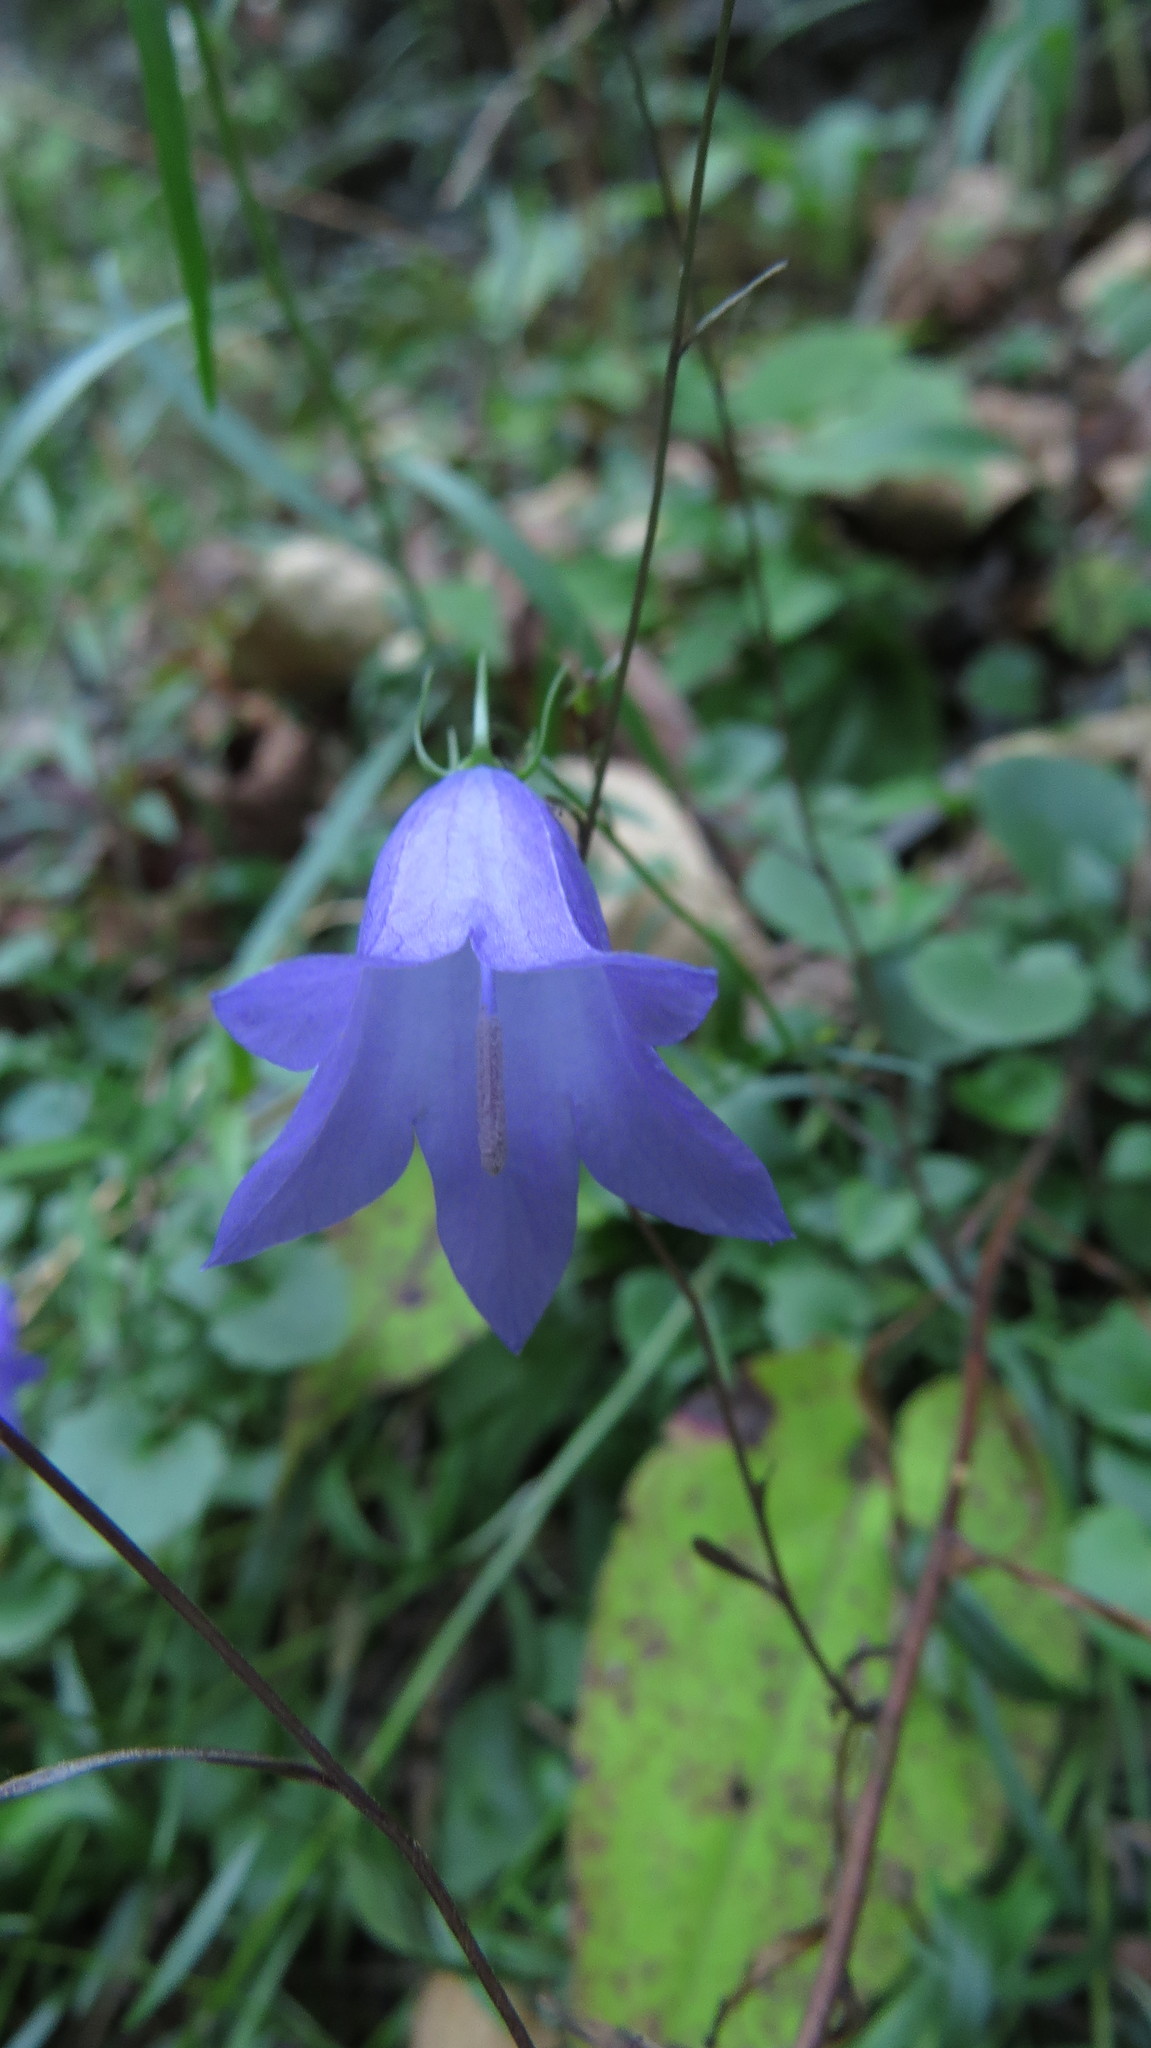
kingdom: Plantae
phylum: Tracheophyta
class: Magnoliopsida
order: Asterales
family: Campanulaceae
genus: Campanula
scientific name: Campanula intercedens
